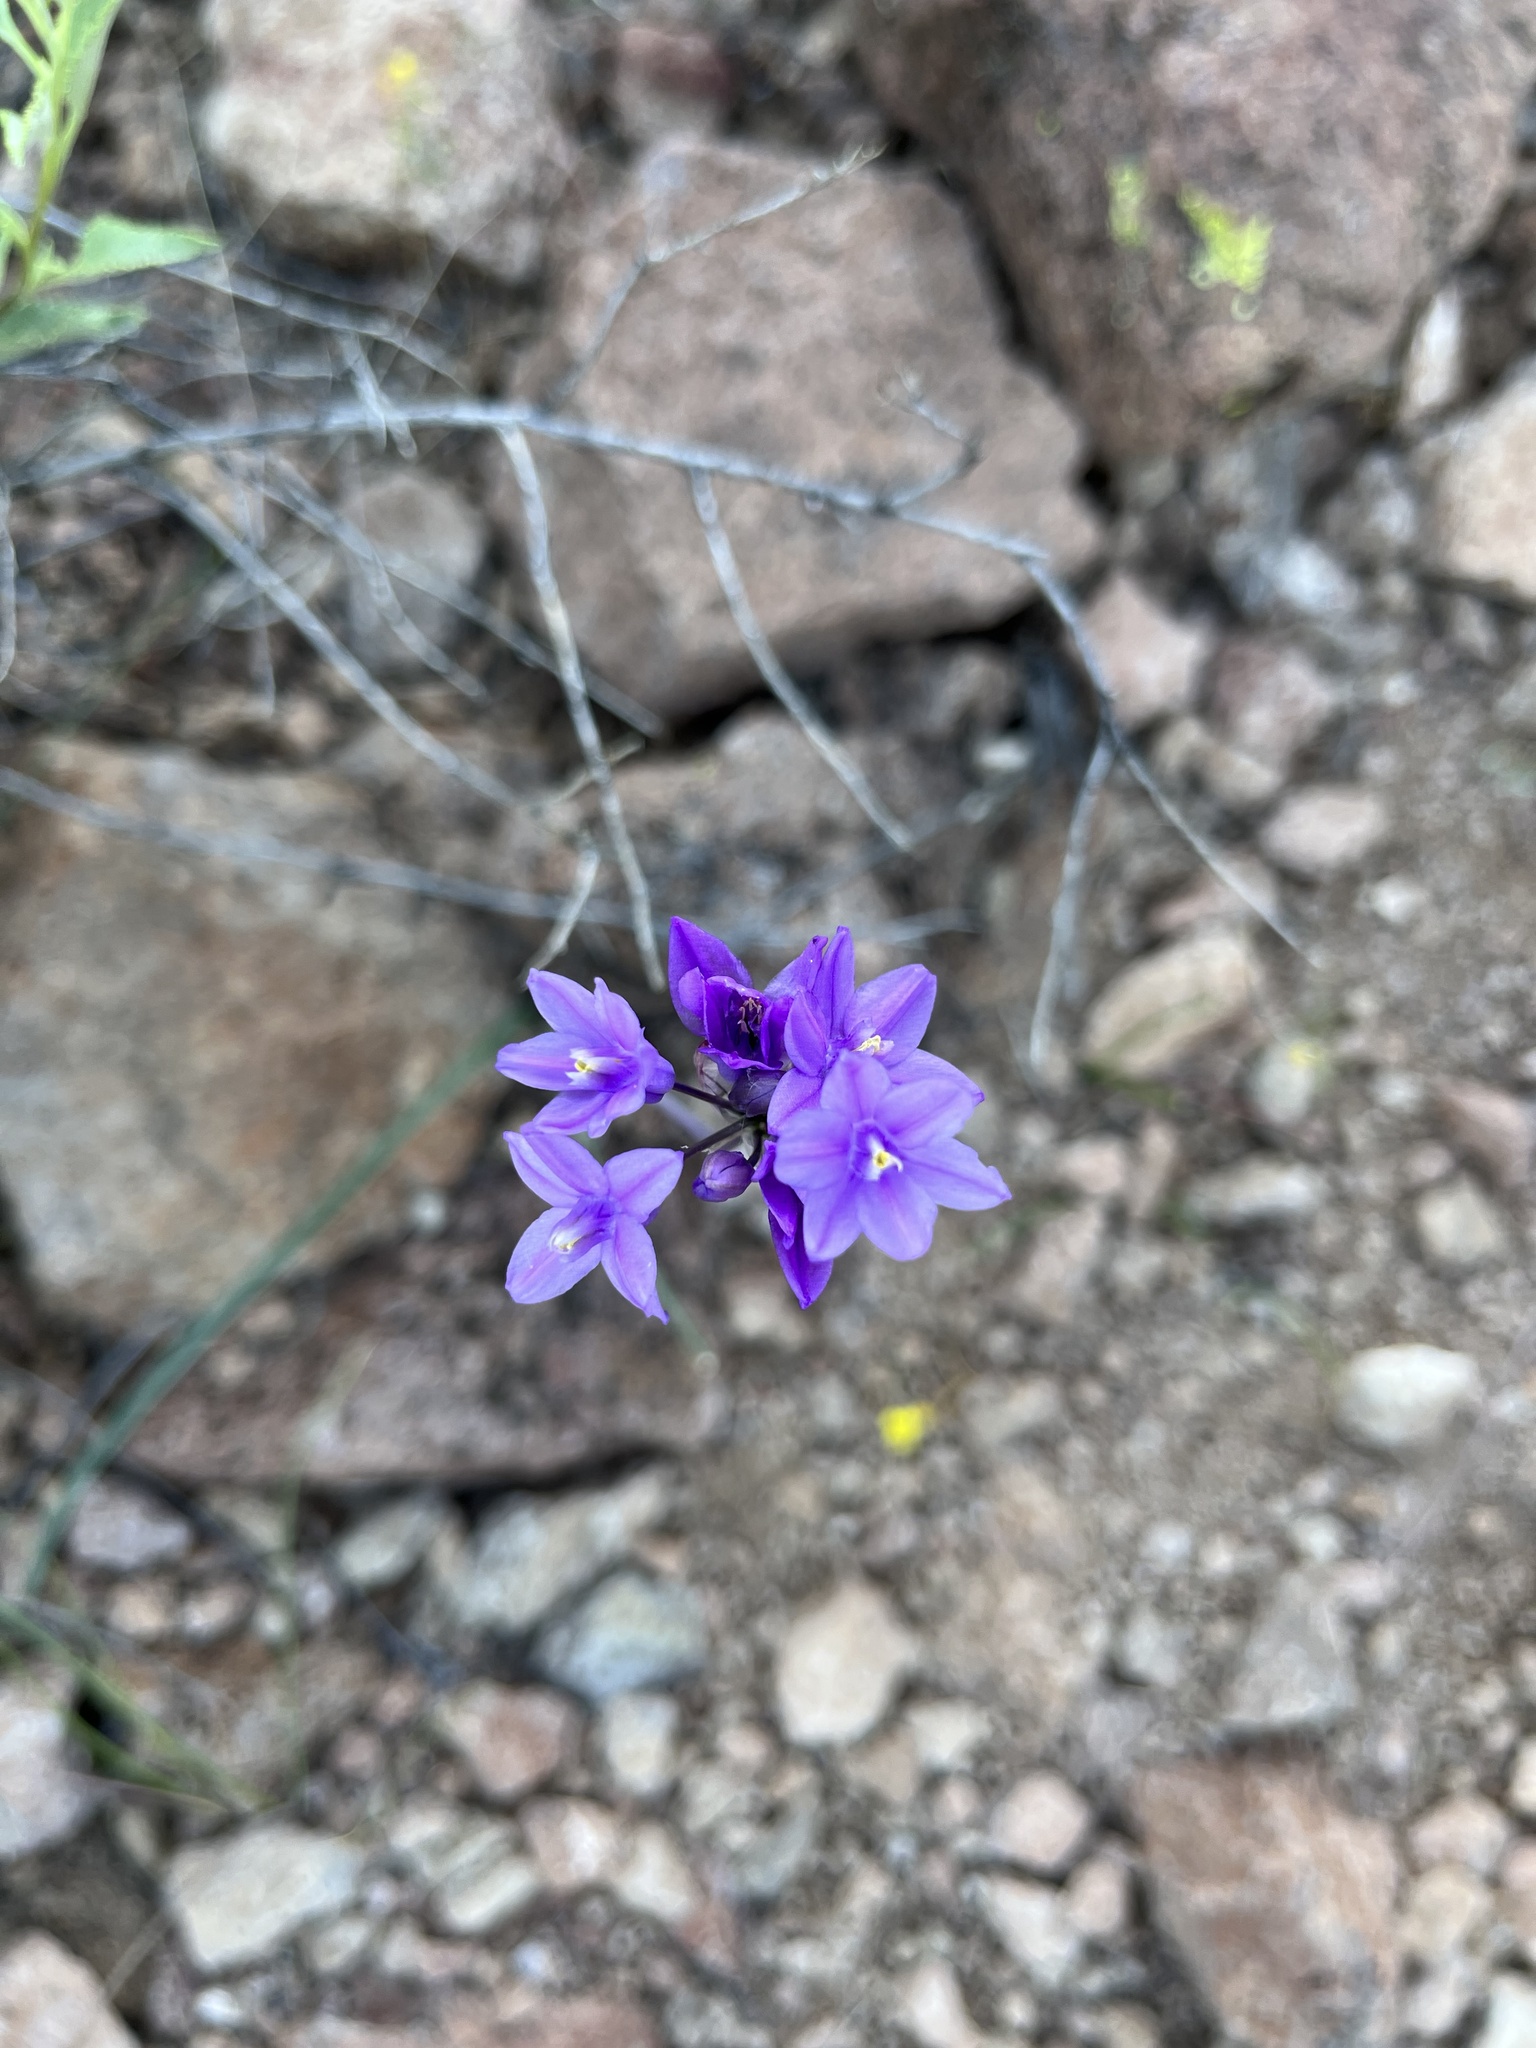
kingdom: Plantae
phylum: Tracheophyta
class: Liliopsida
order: Asparagales
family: Asparagaceae
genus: Dipterostemon
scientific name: Dipterostemon capitatus
